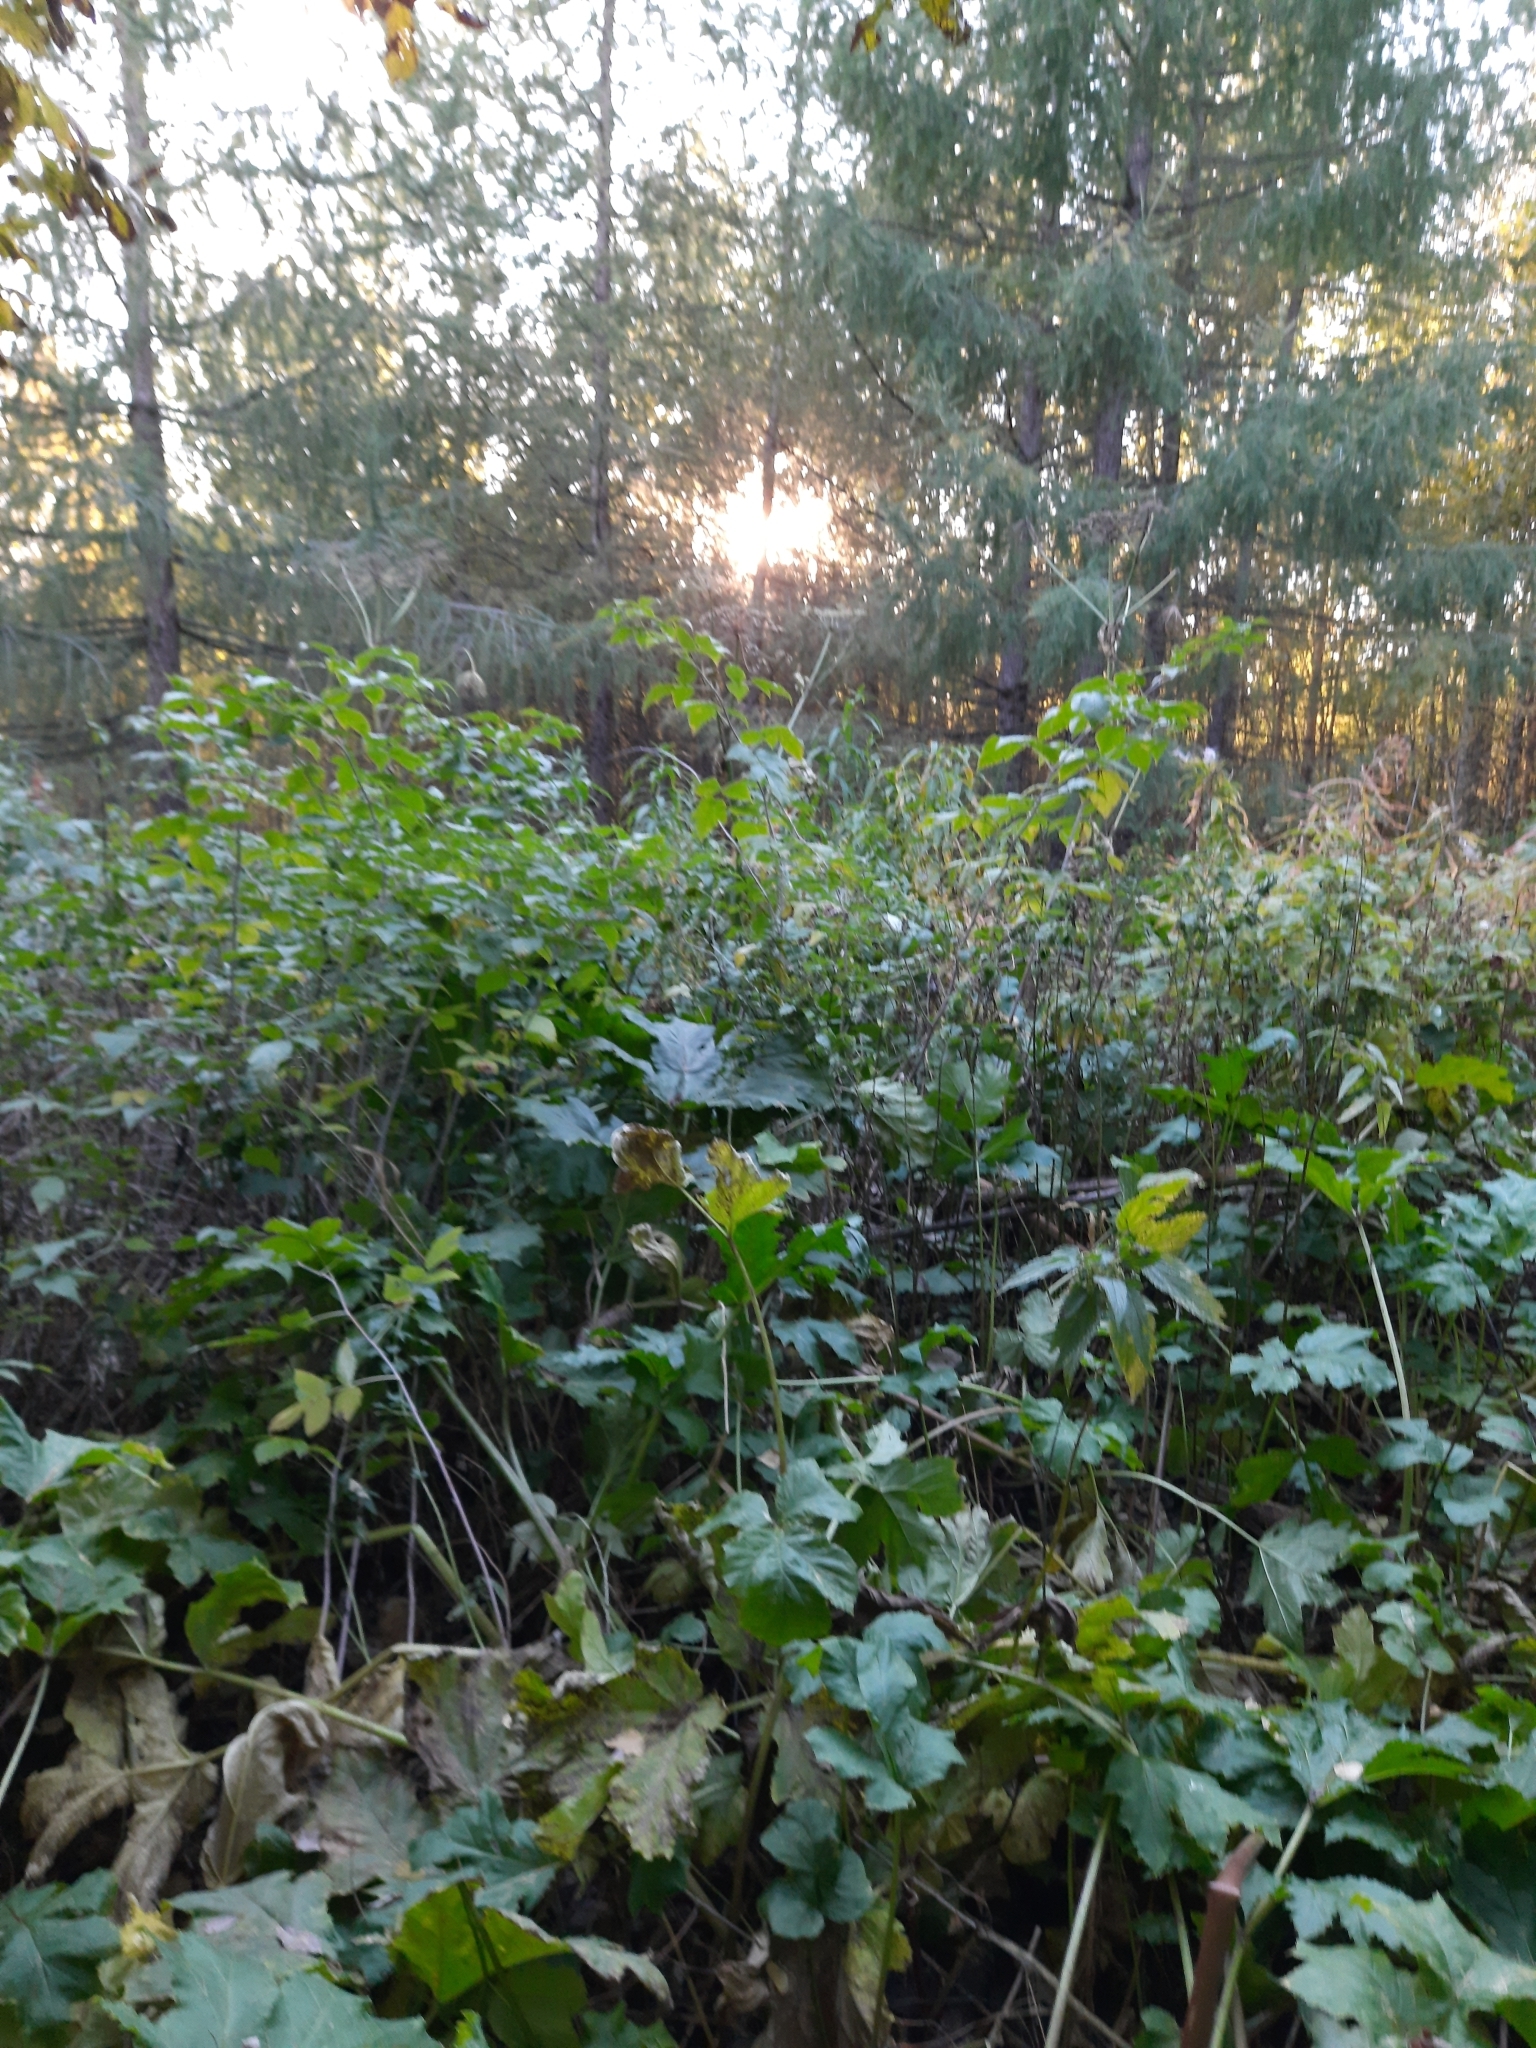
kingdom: Plantae
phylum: Tracheophyta
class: Magnoliopsida
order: Apiales
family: Apiaceae
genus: Heracleum
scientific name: Heracleum sosnowskyi
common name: Sosnowsky's hogweed
